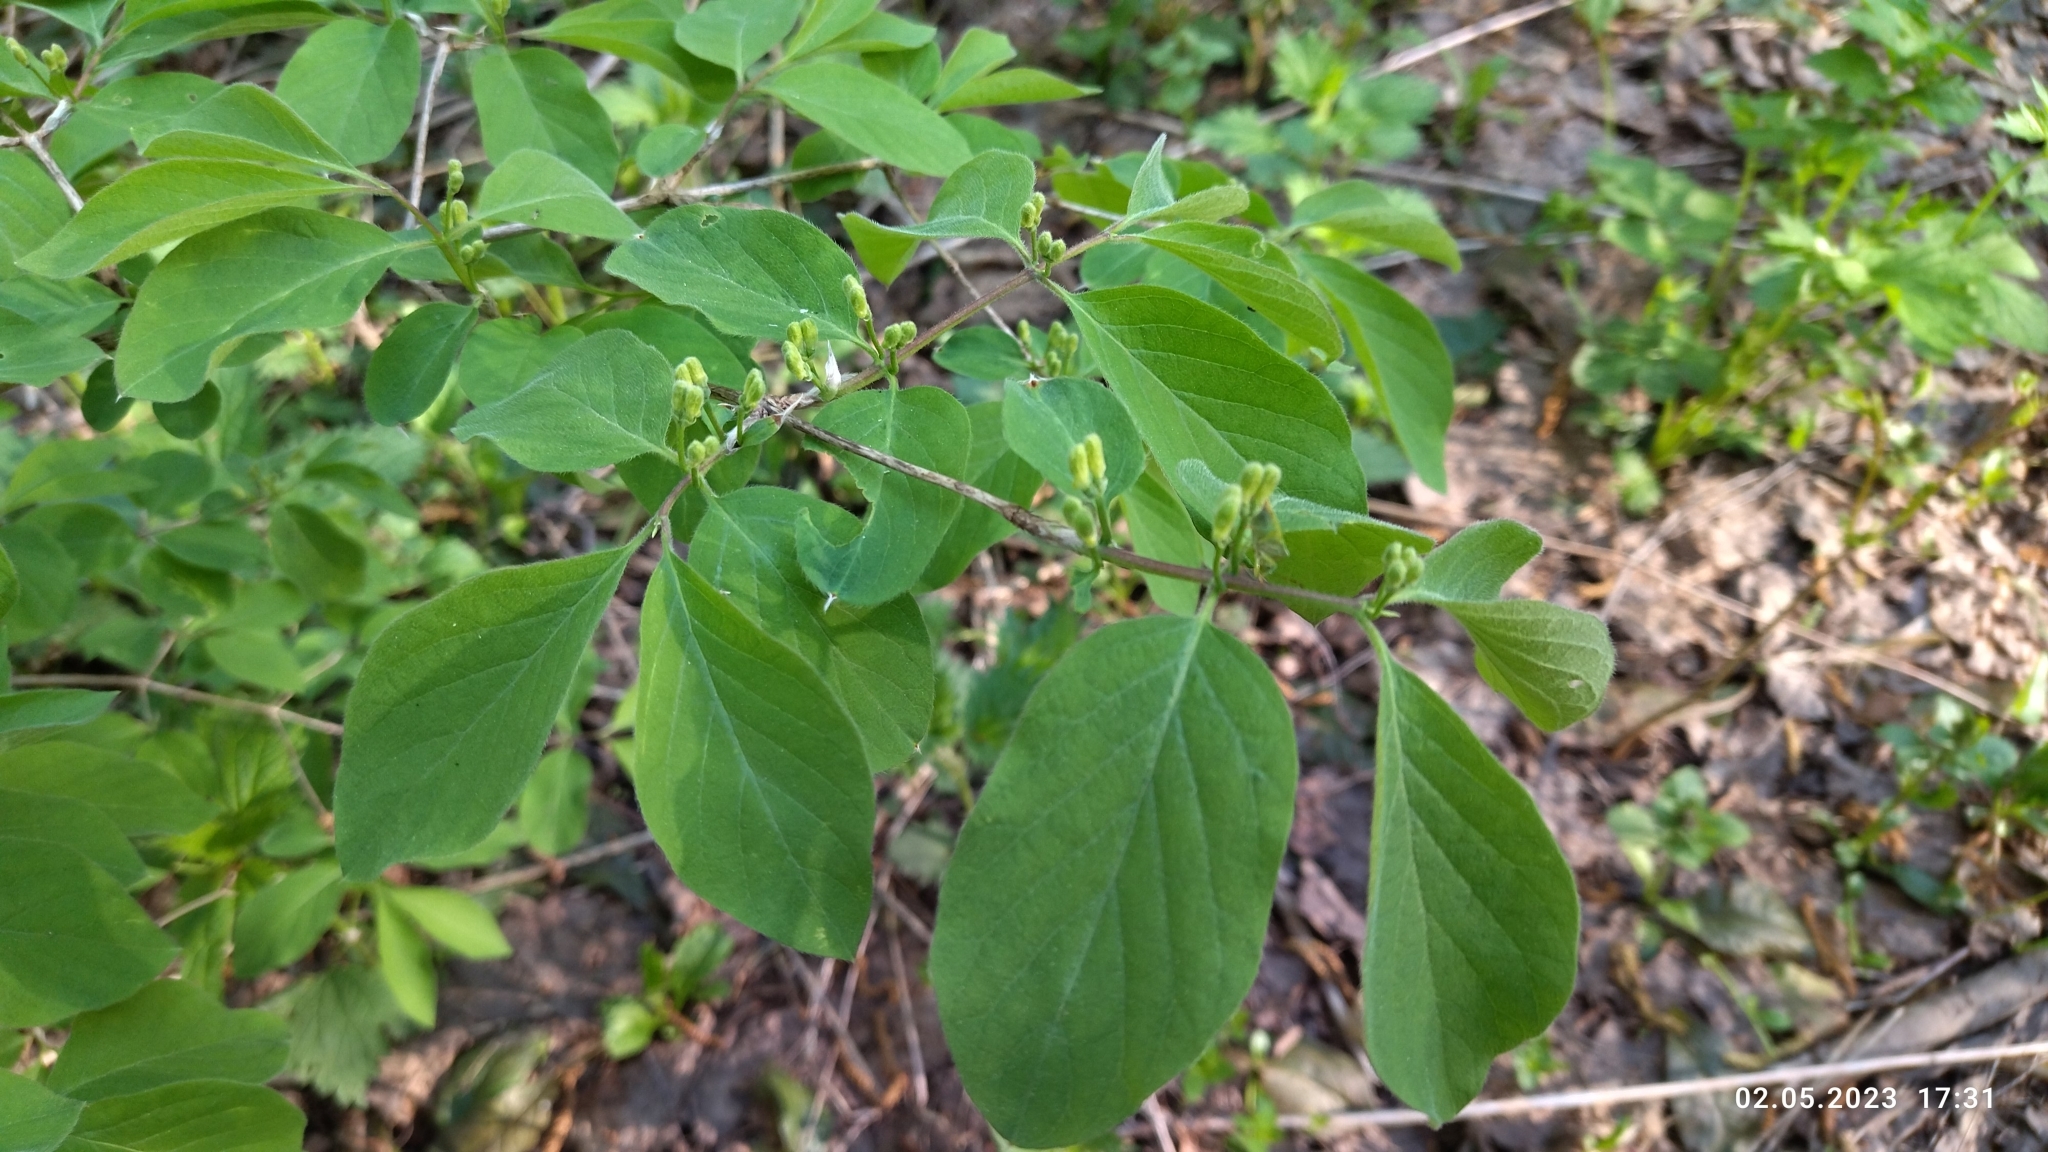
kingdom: Plantae
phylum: Tracheophyta
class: Magnoliopsida
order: Dipsacales
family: Caprifoliaceae
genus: Lonicera
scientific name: Lonicera xylosteum
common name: Fly honeysuckle
